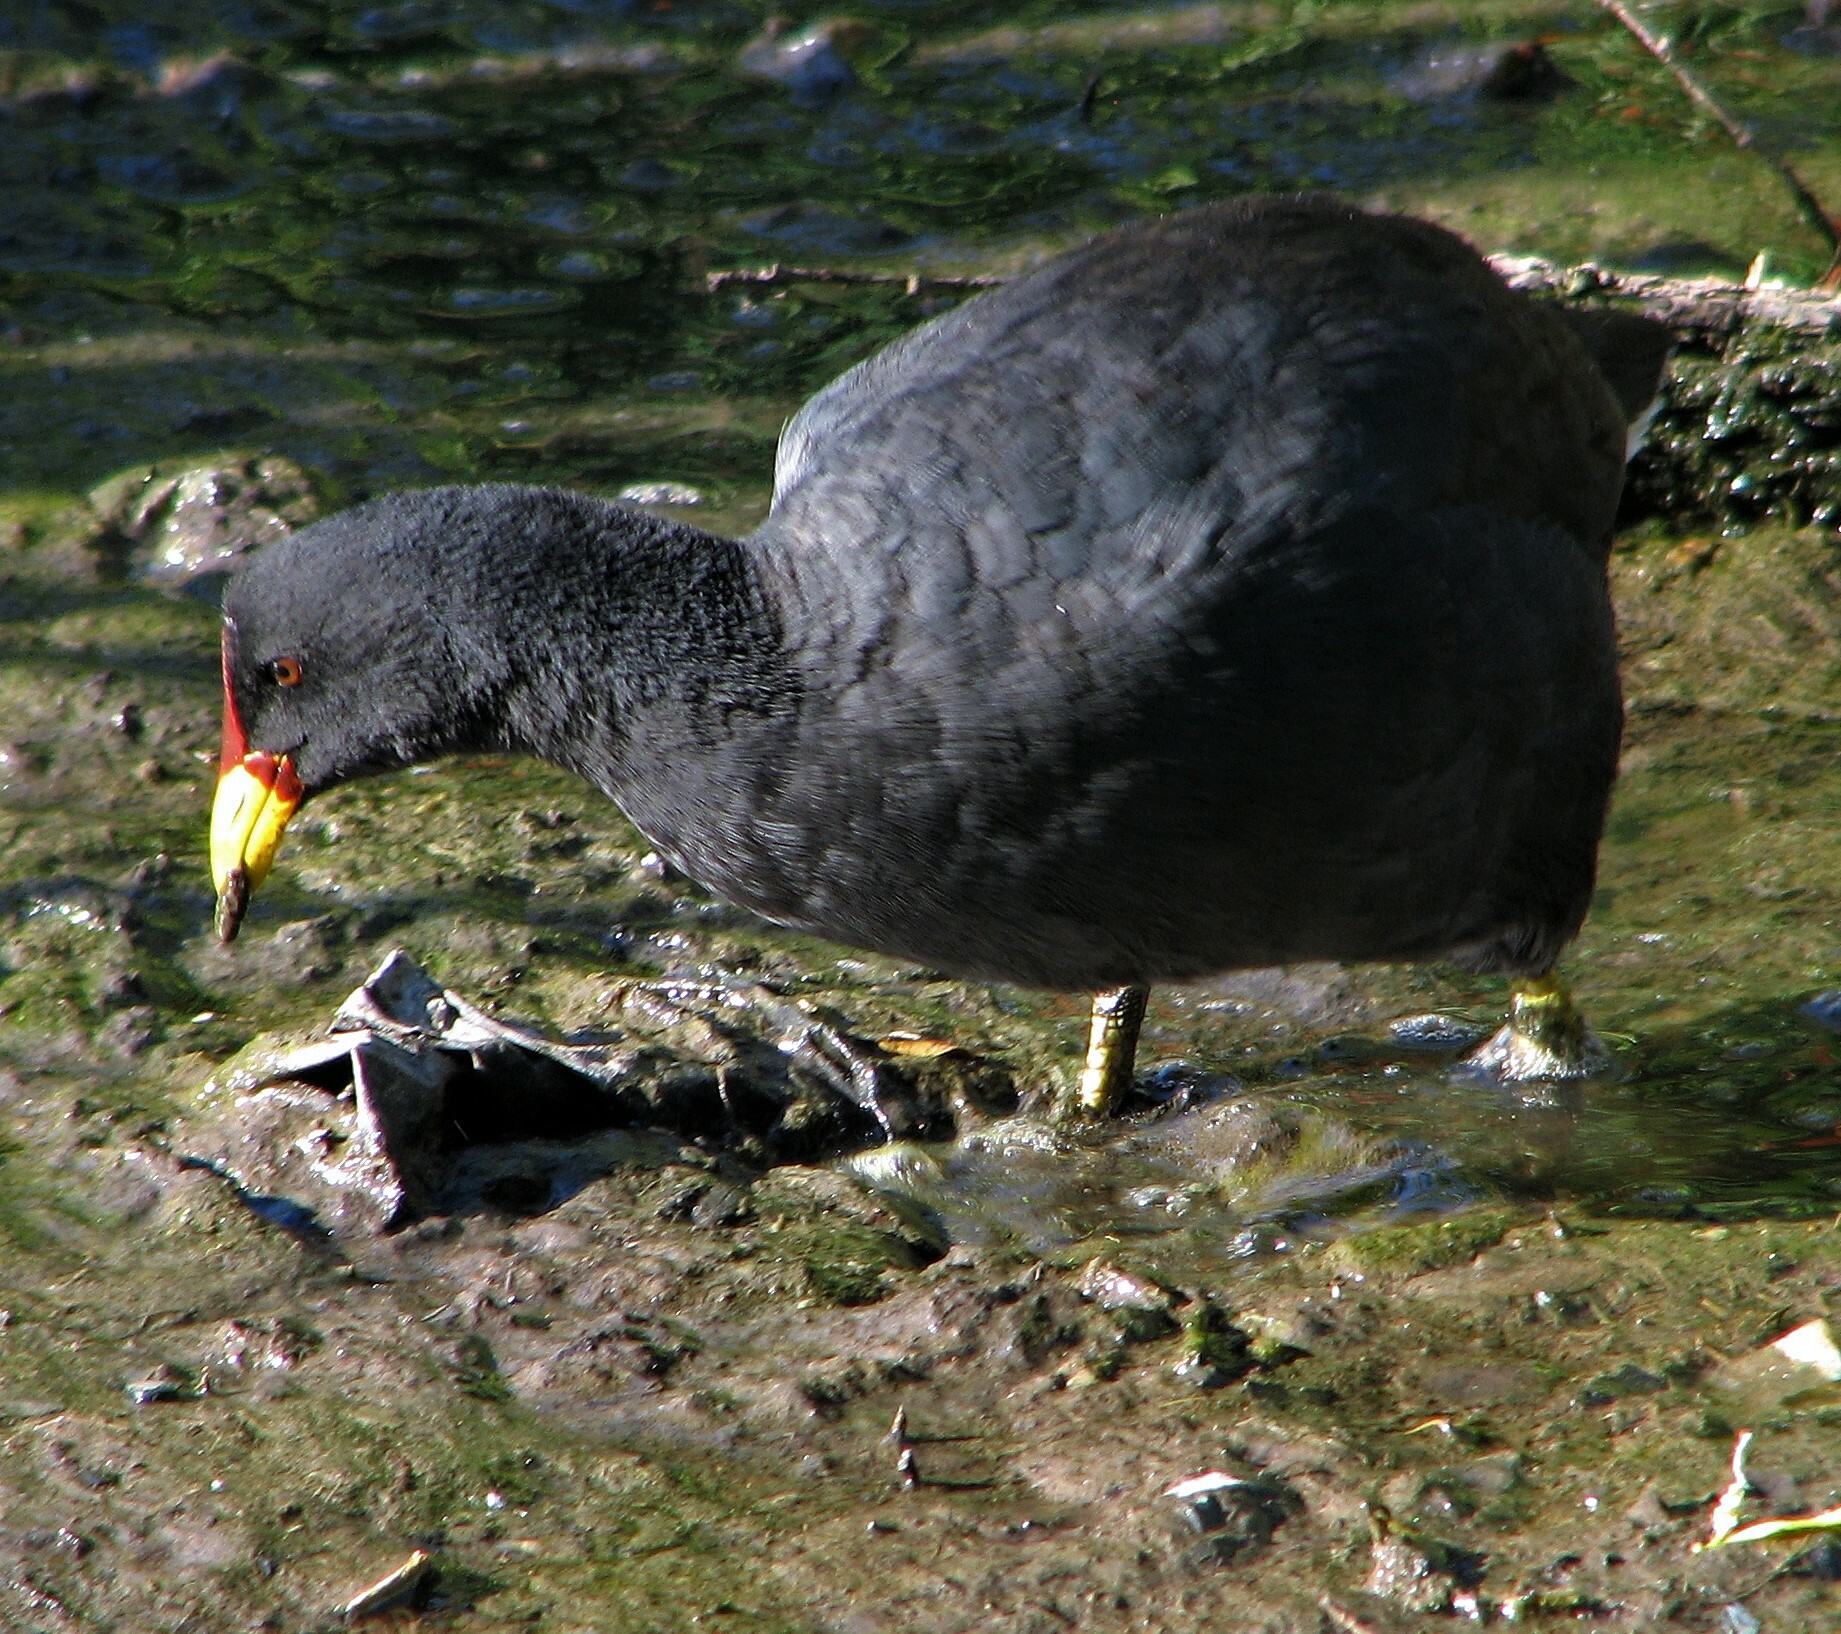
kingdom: Animalia
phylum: Chordata
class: Aves
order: Gruiformes
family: Rallidae
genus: Fulica
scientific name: Fulica rufifrons
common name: Red-fronted coot
